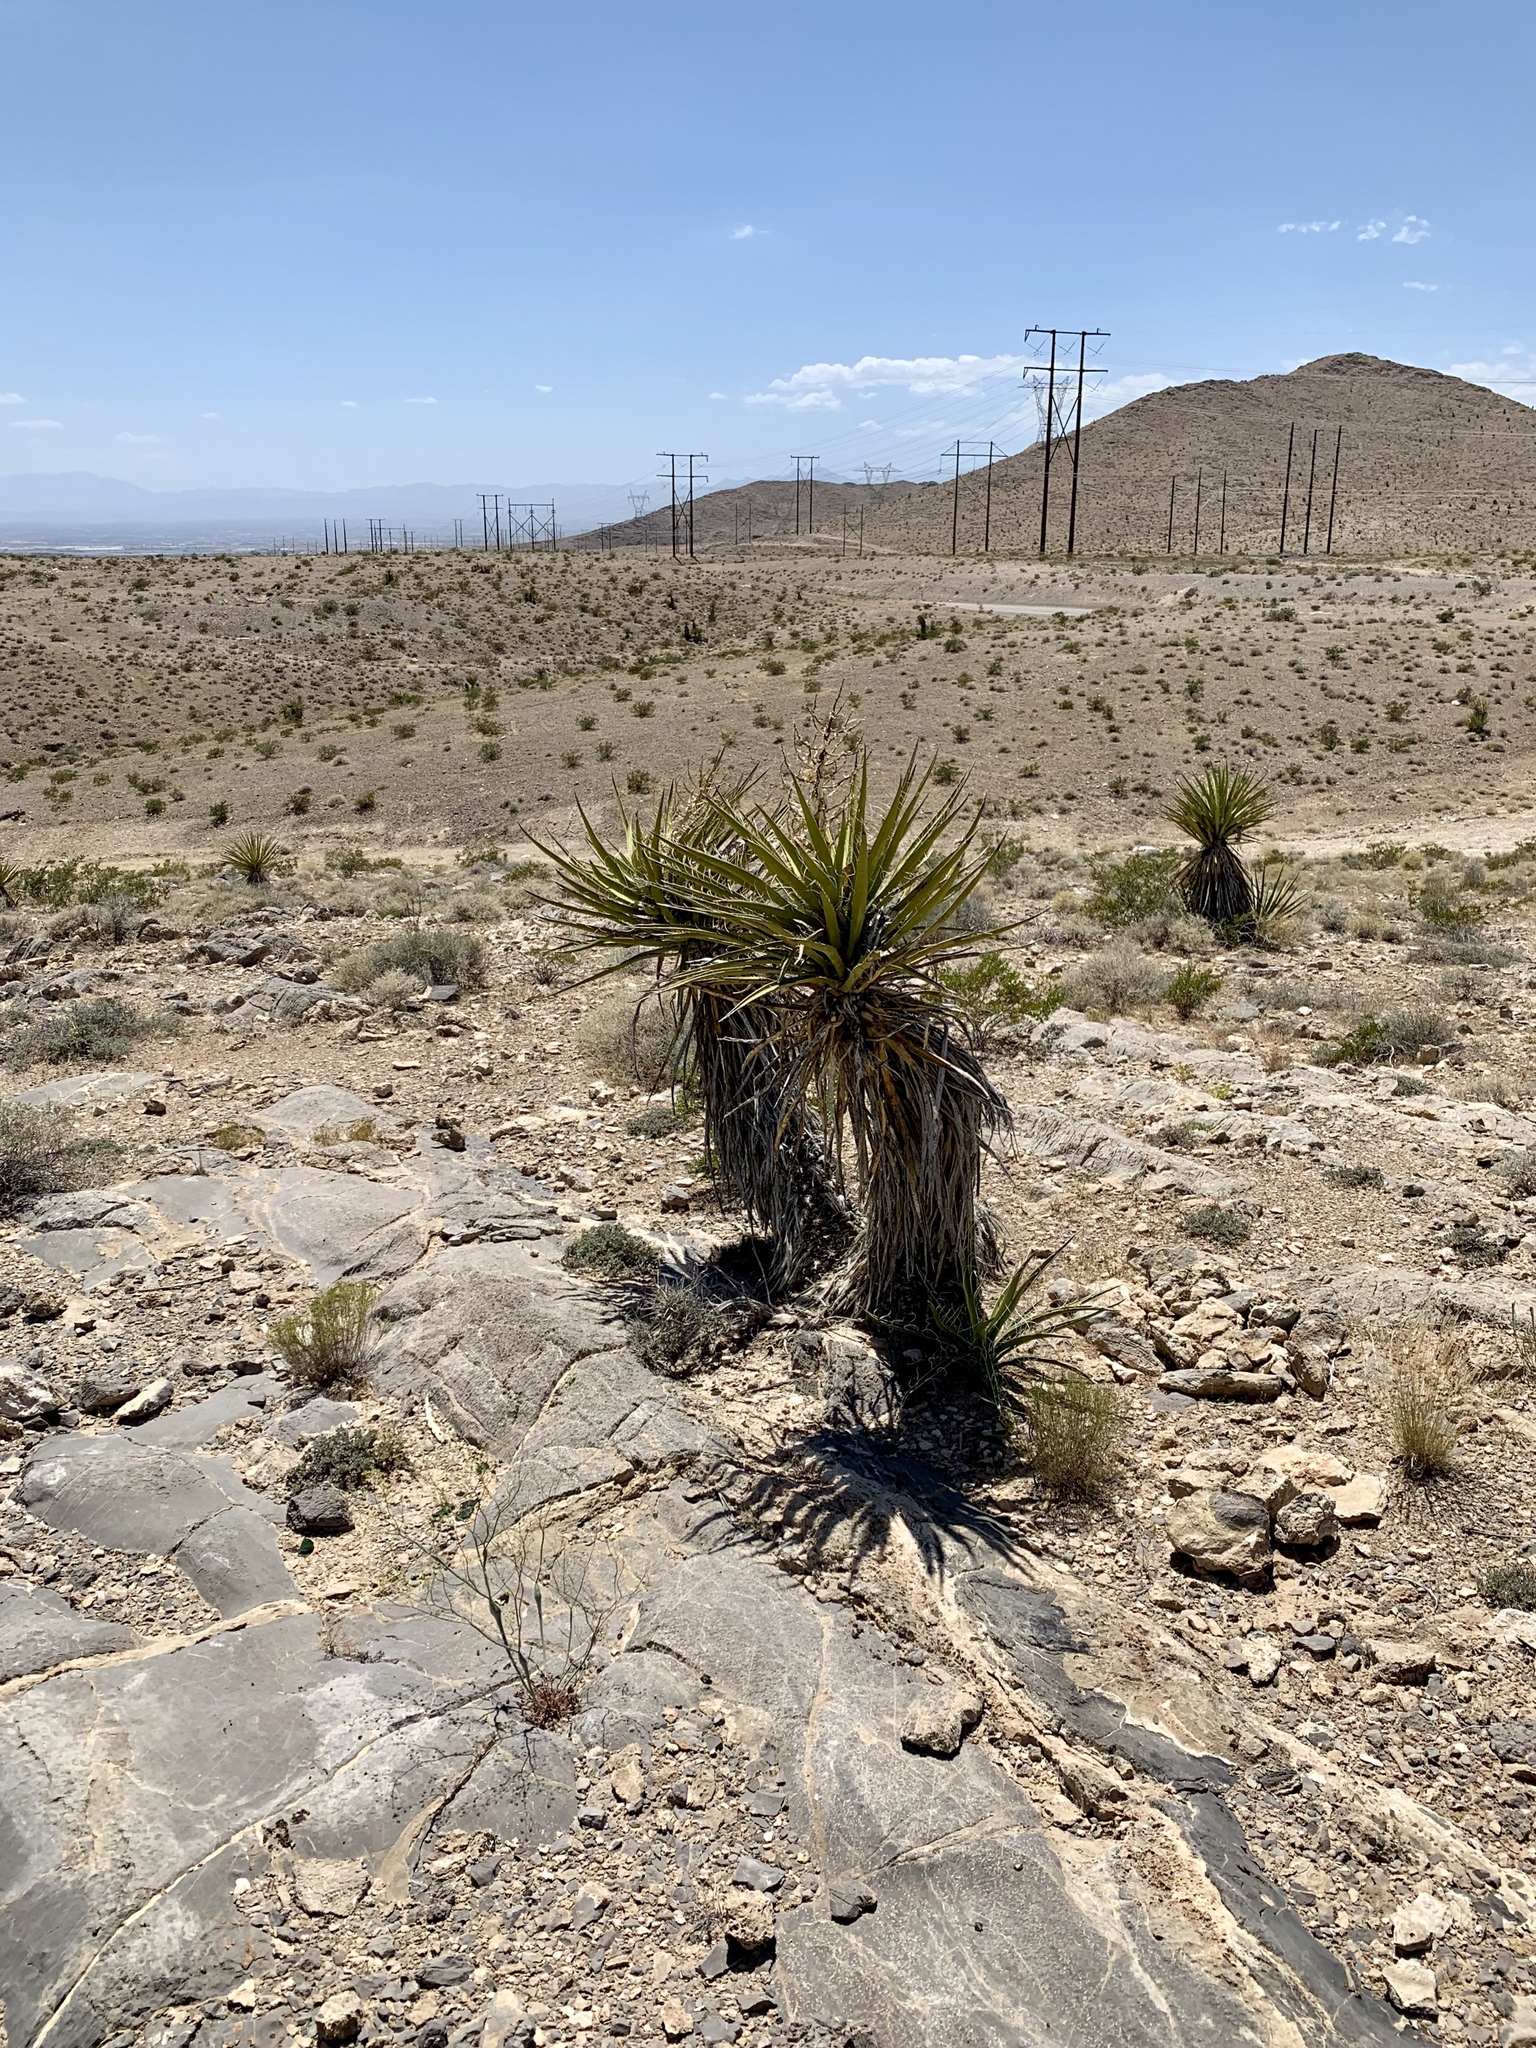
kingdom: Plantae
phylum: Tracheophyta
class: Liliopsida
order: Asparagales
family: Asparagaceae
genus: Yucca
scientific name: Yucca schidigera
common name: Mojave yucca
